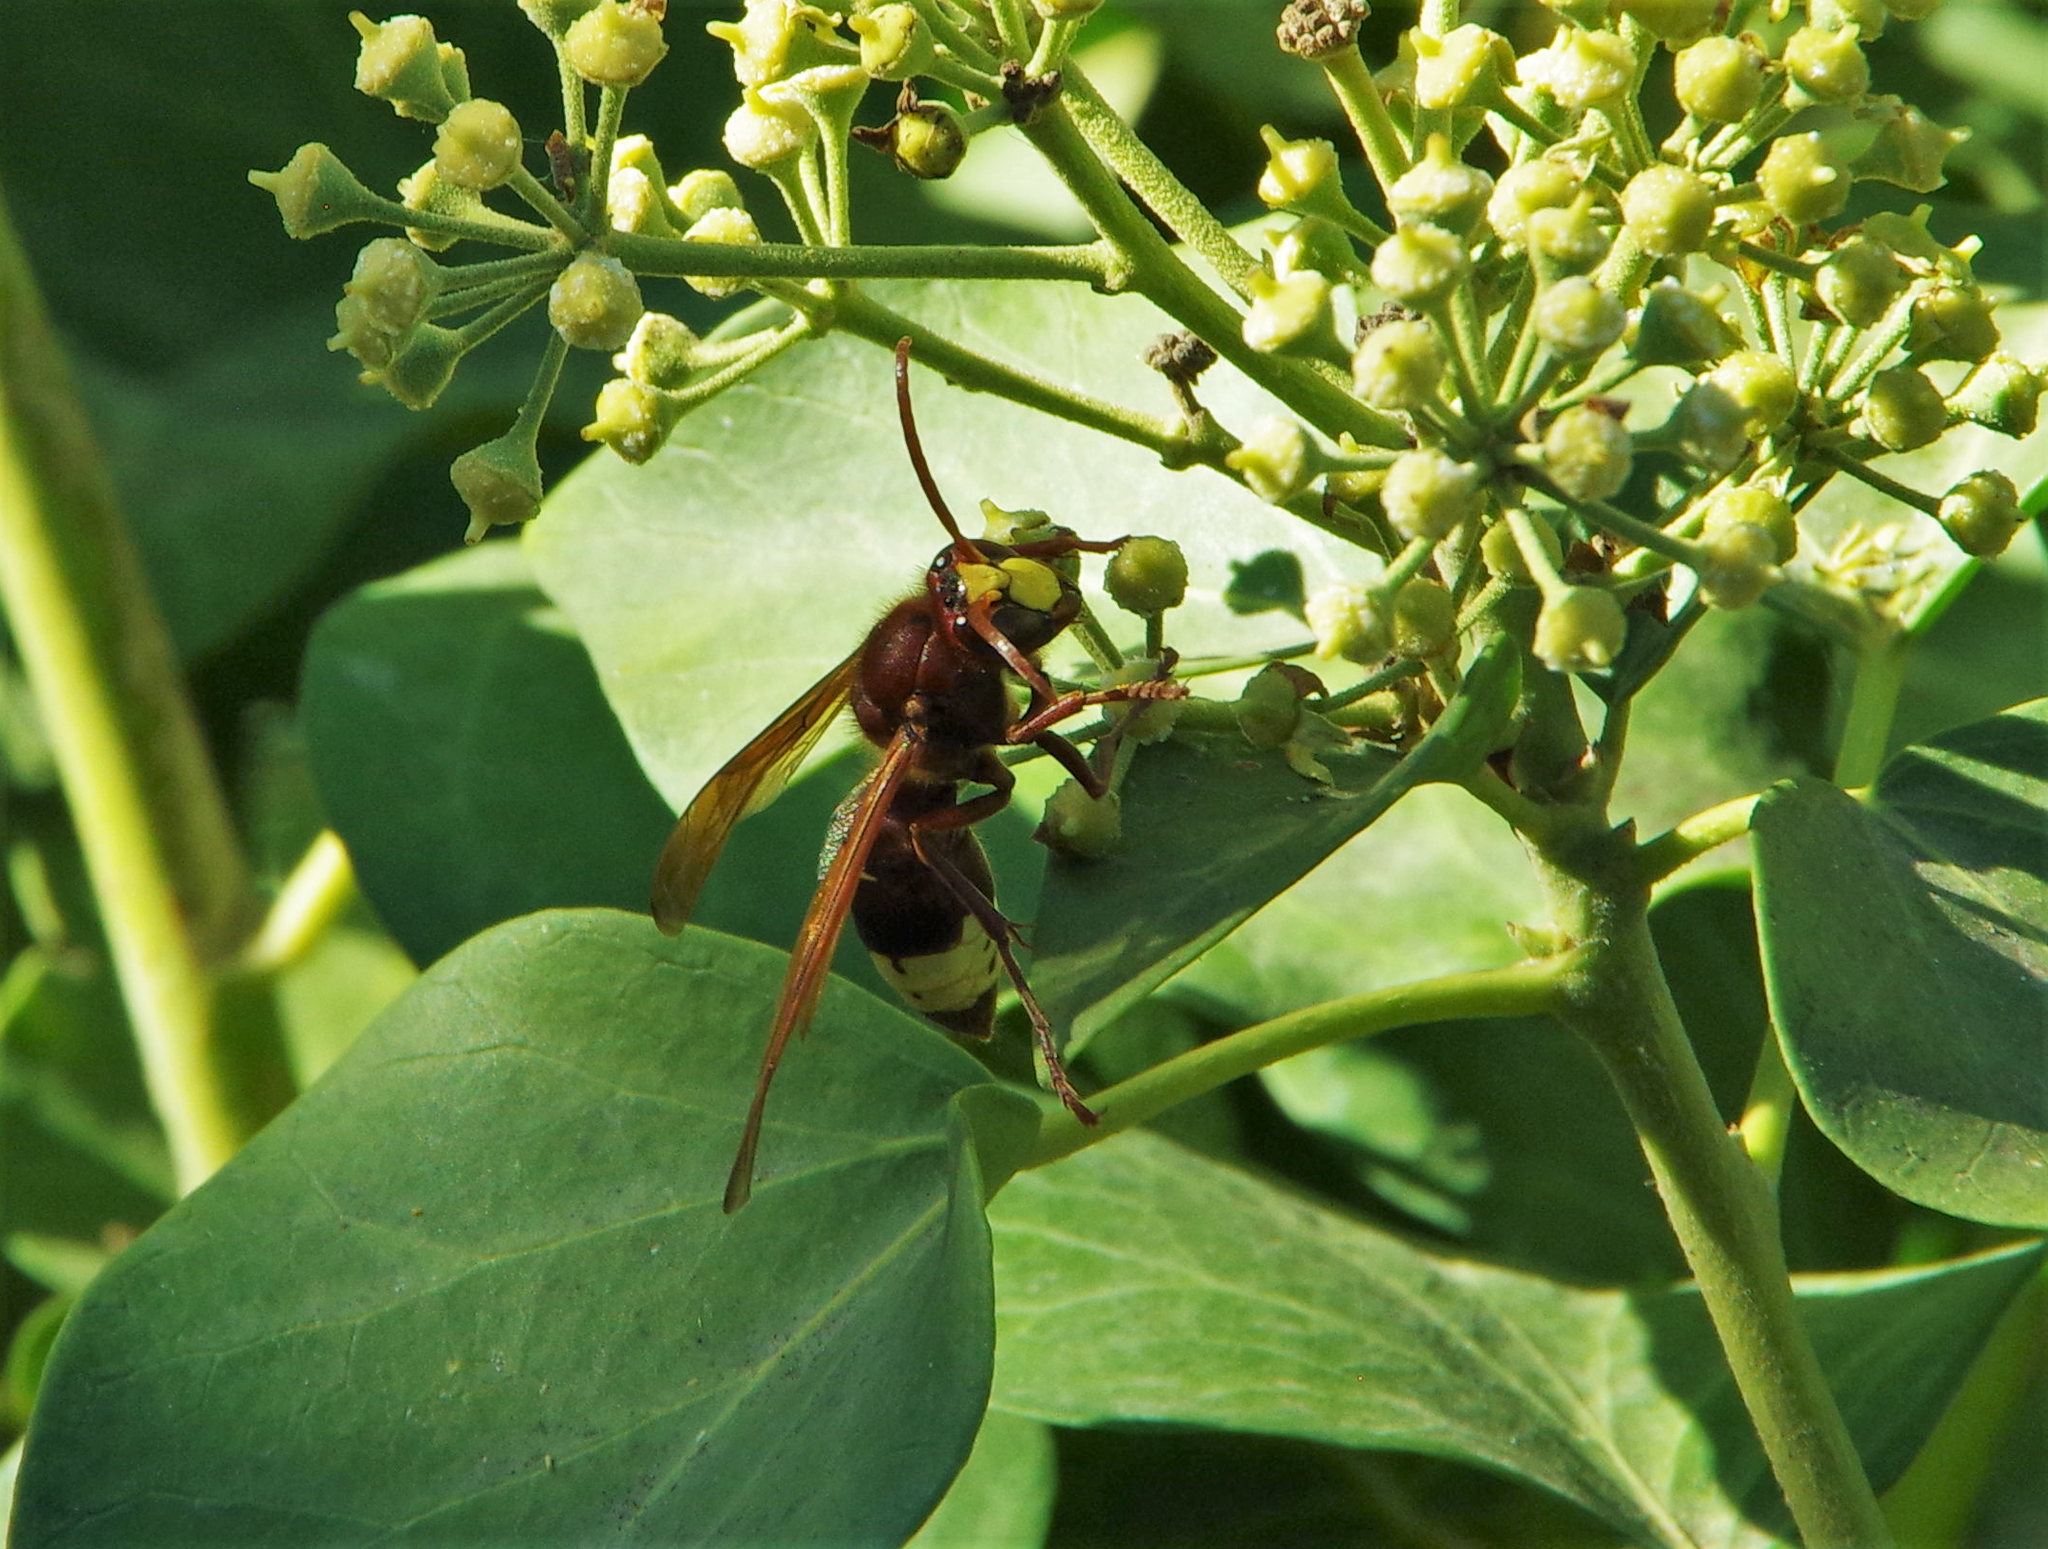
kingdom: Animalia
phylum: Arthropoda
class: Insecta
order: Hymenoptera
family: Vespidae
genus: Vespa
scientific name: Vespa orientalis
